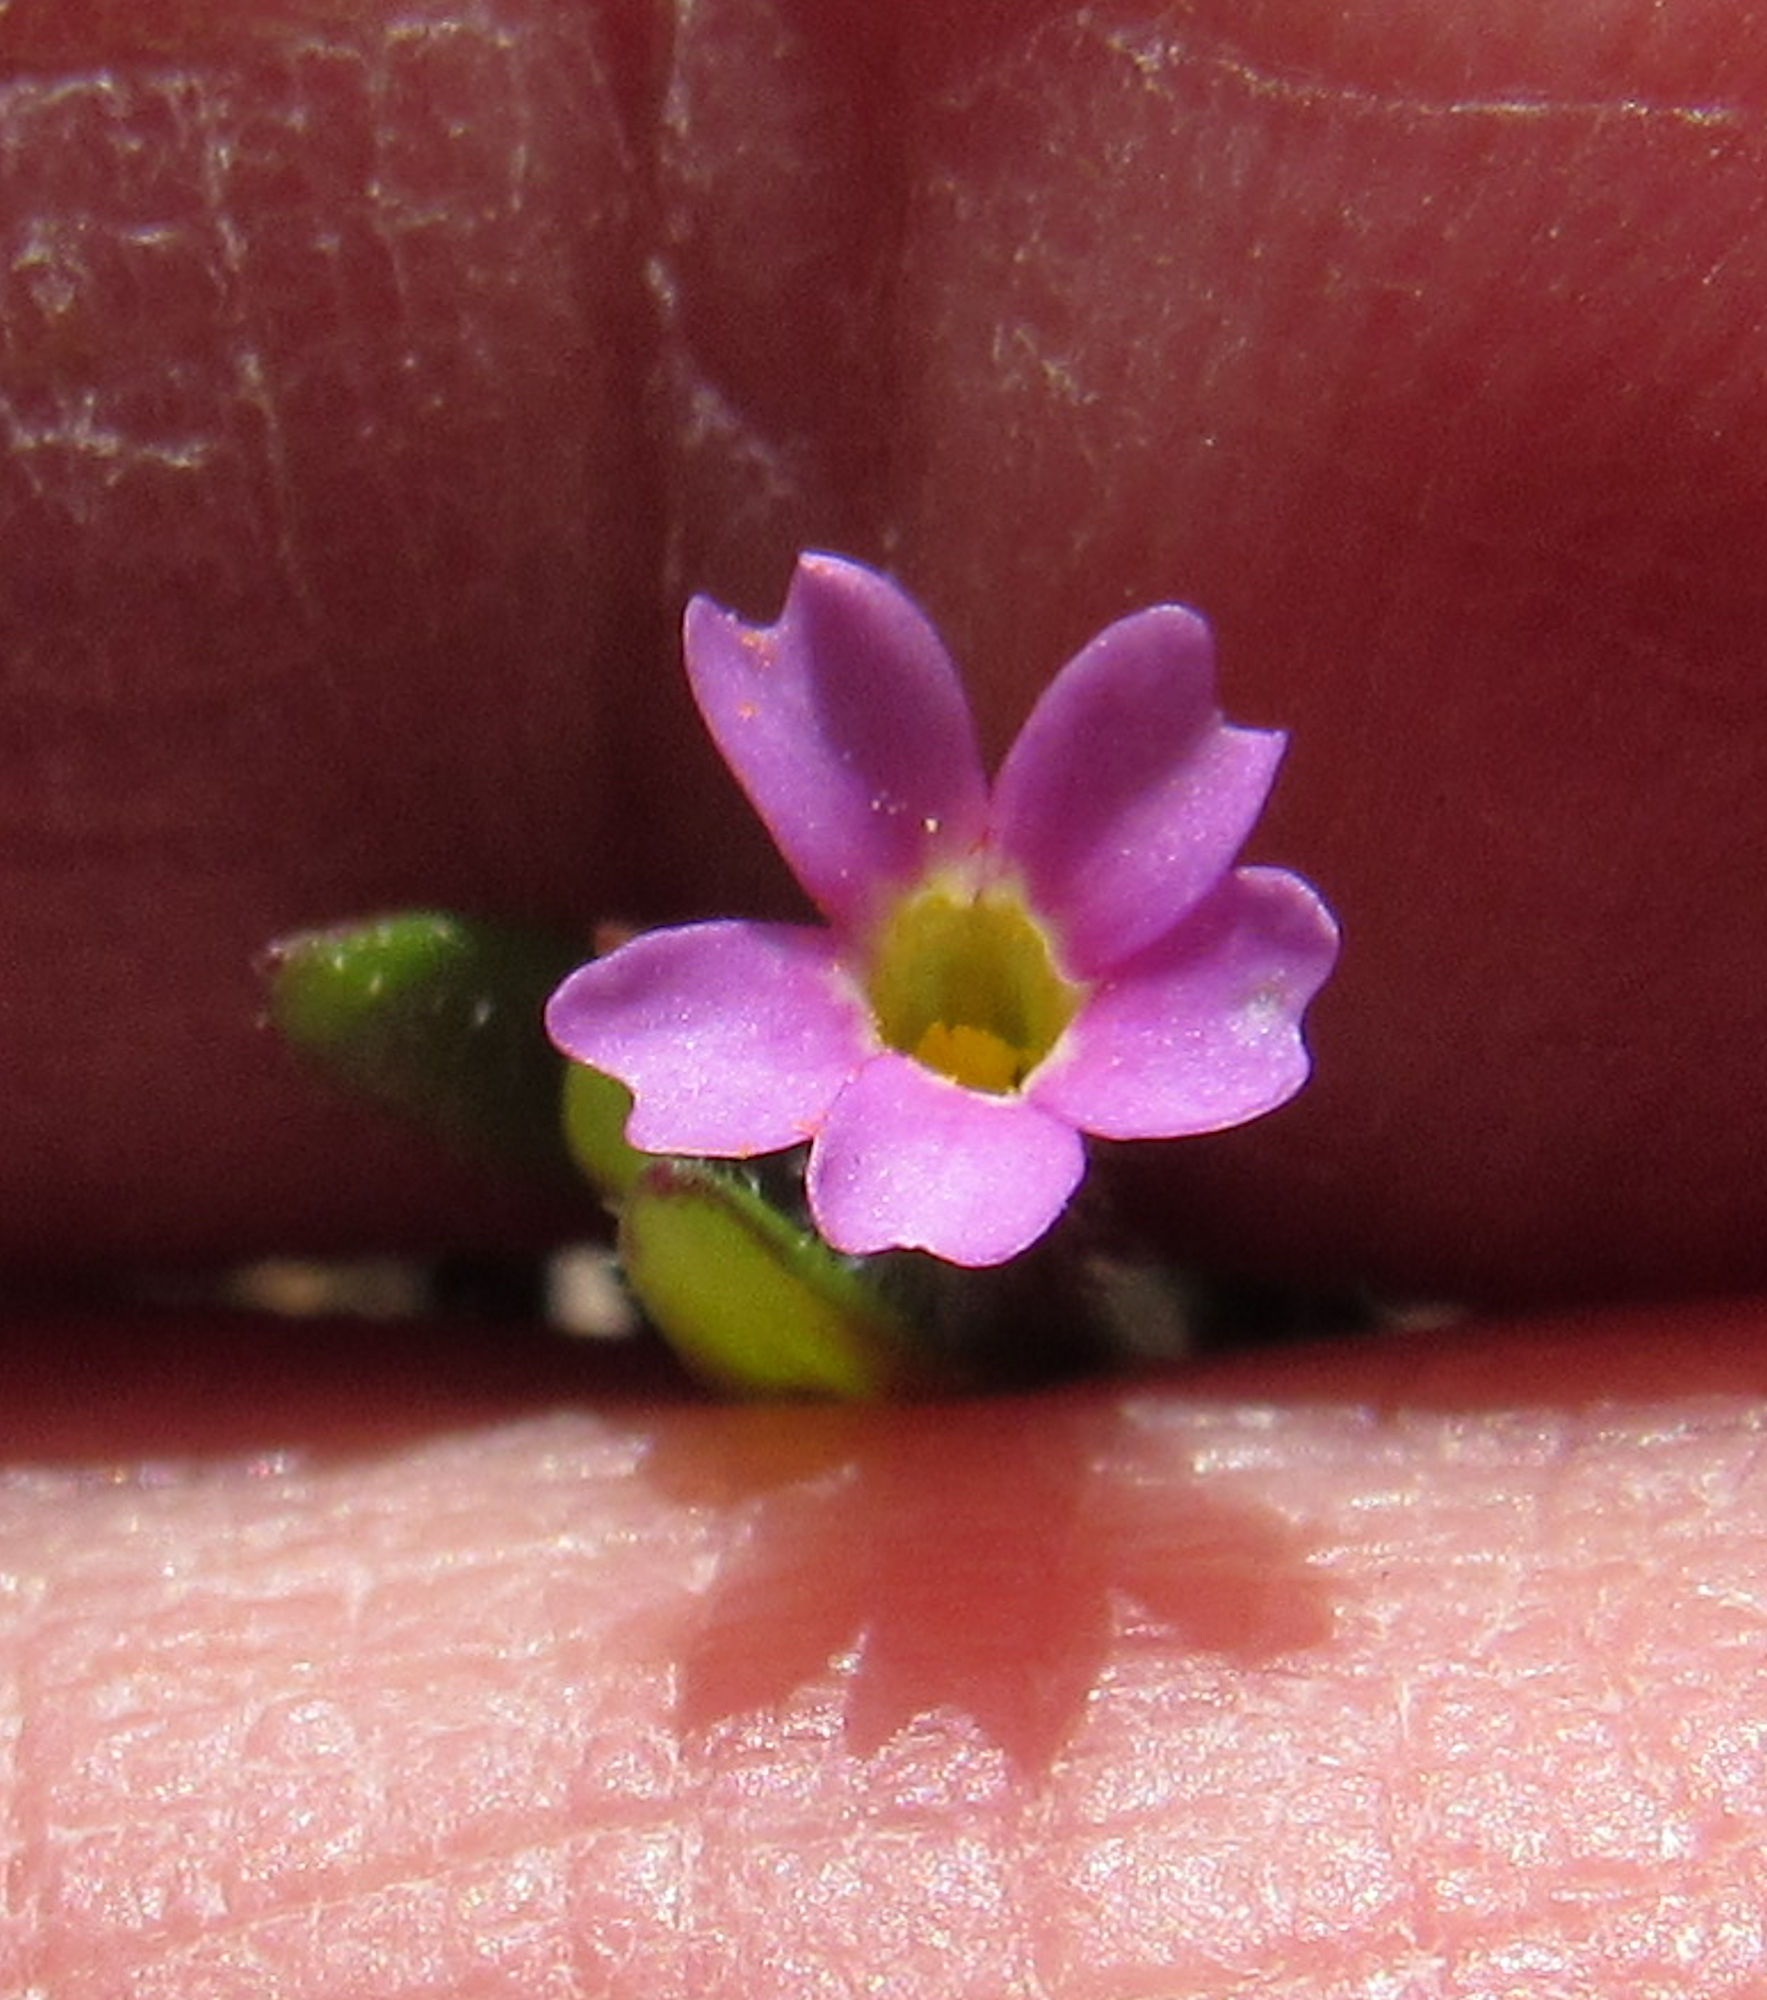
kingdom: Plantae
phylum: Tracheophyta
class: Magnoliopsida
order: Ericales
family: Polemoniaceae
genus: Phlox
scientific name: Phlox gracilis
